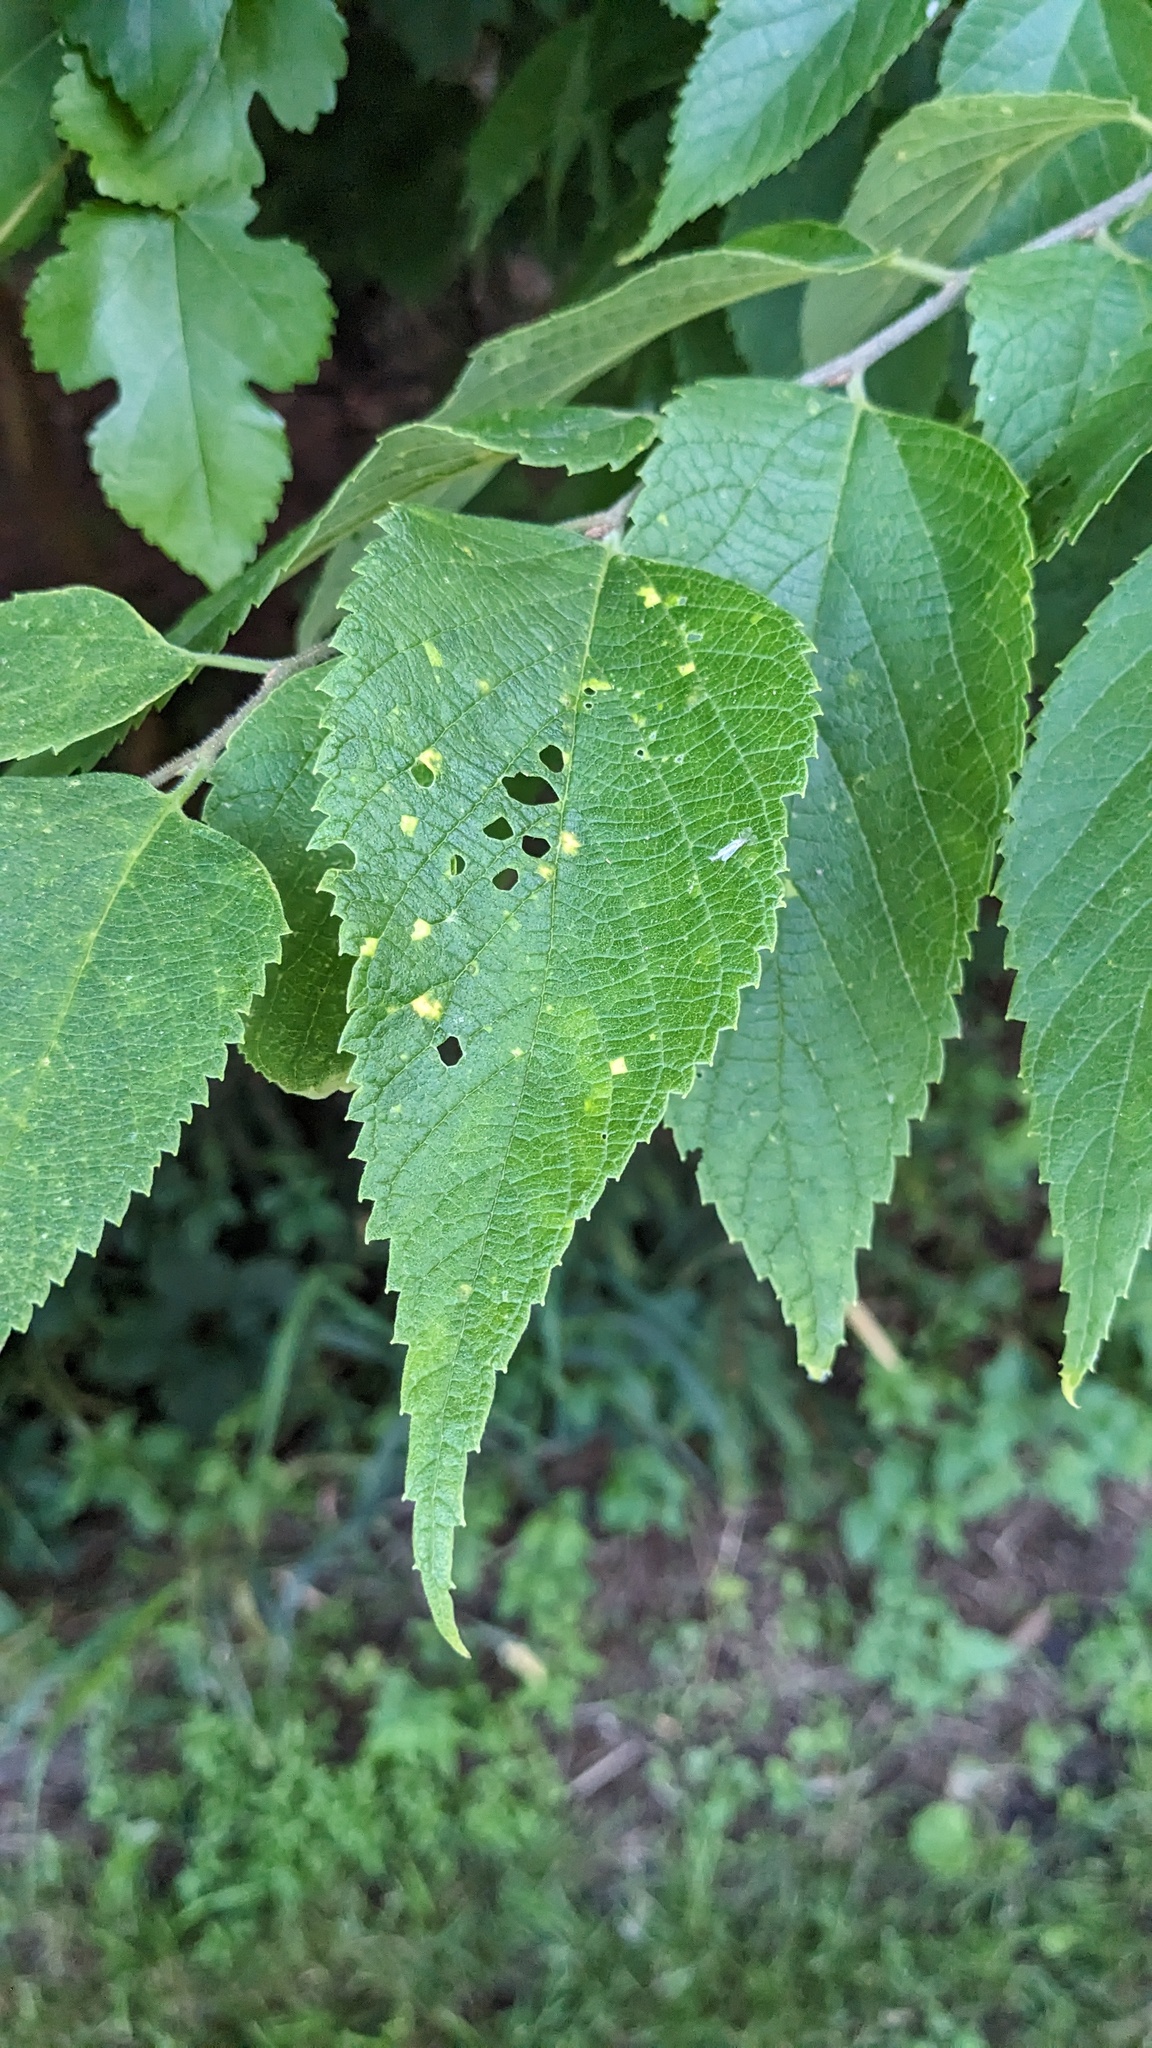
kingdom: Plantae
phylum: Tracheophyta
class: Magnoliopsida
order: Rosales
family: Cannabaceae
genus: Celtis
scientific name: Celtis occidentalis
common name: Common hackberry
